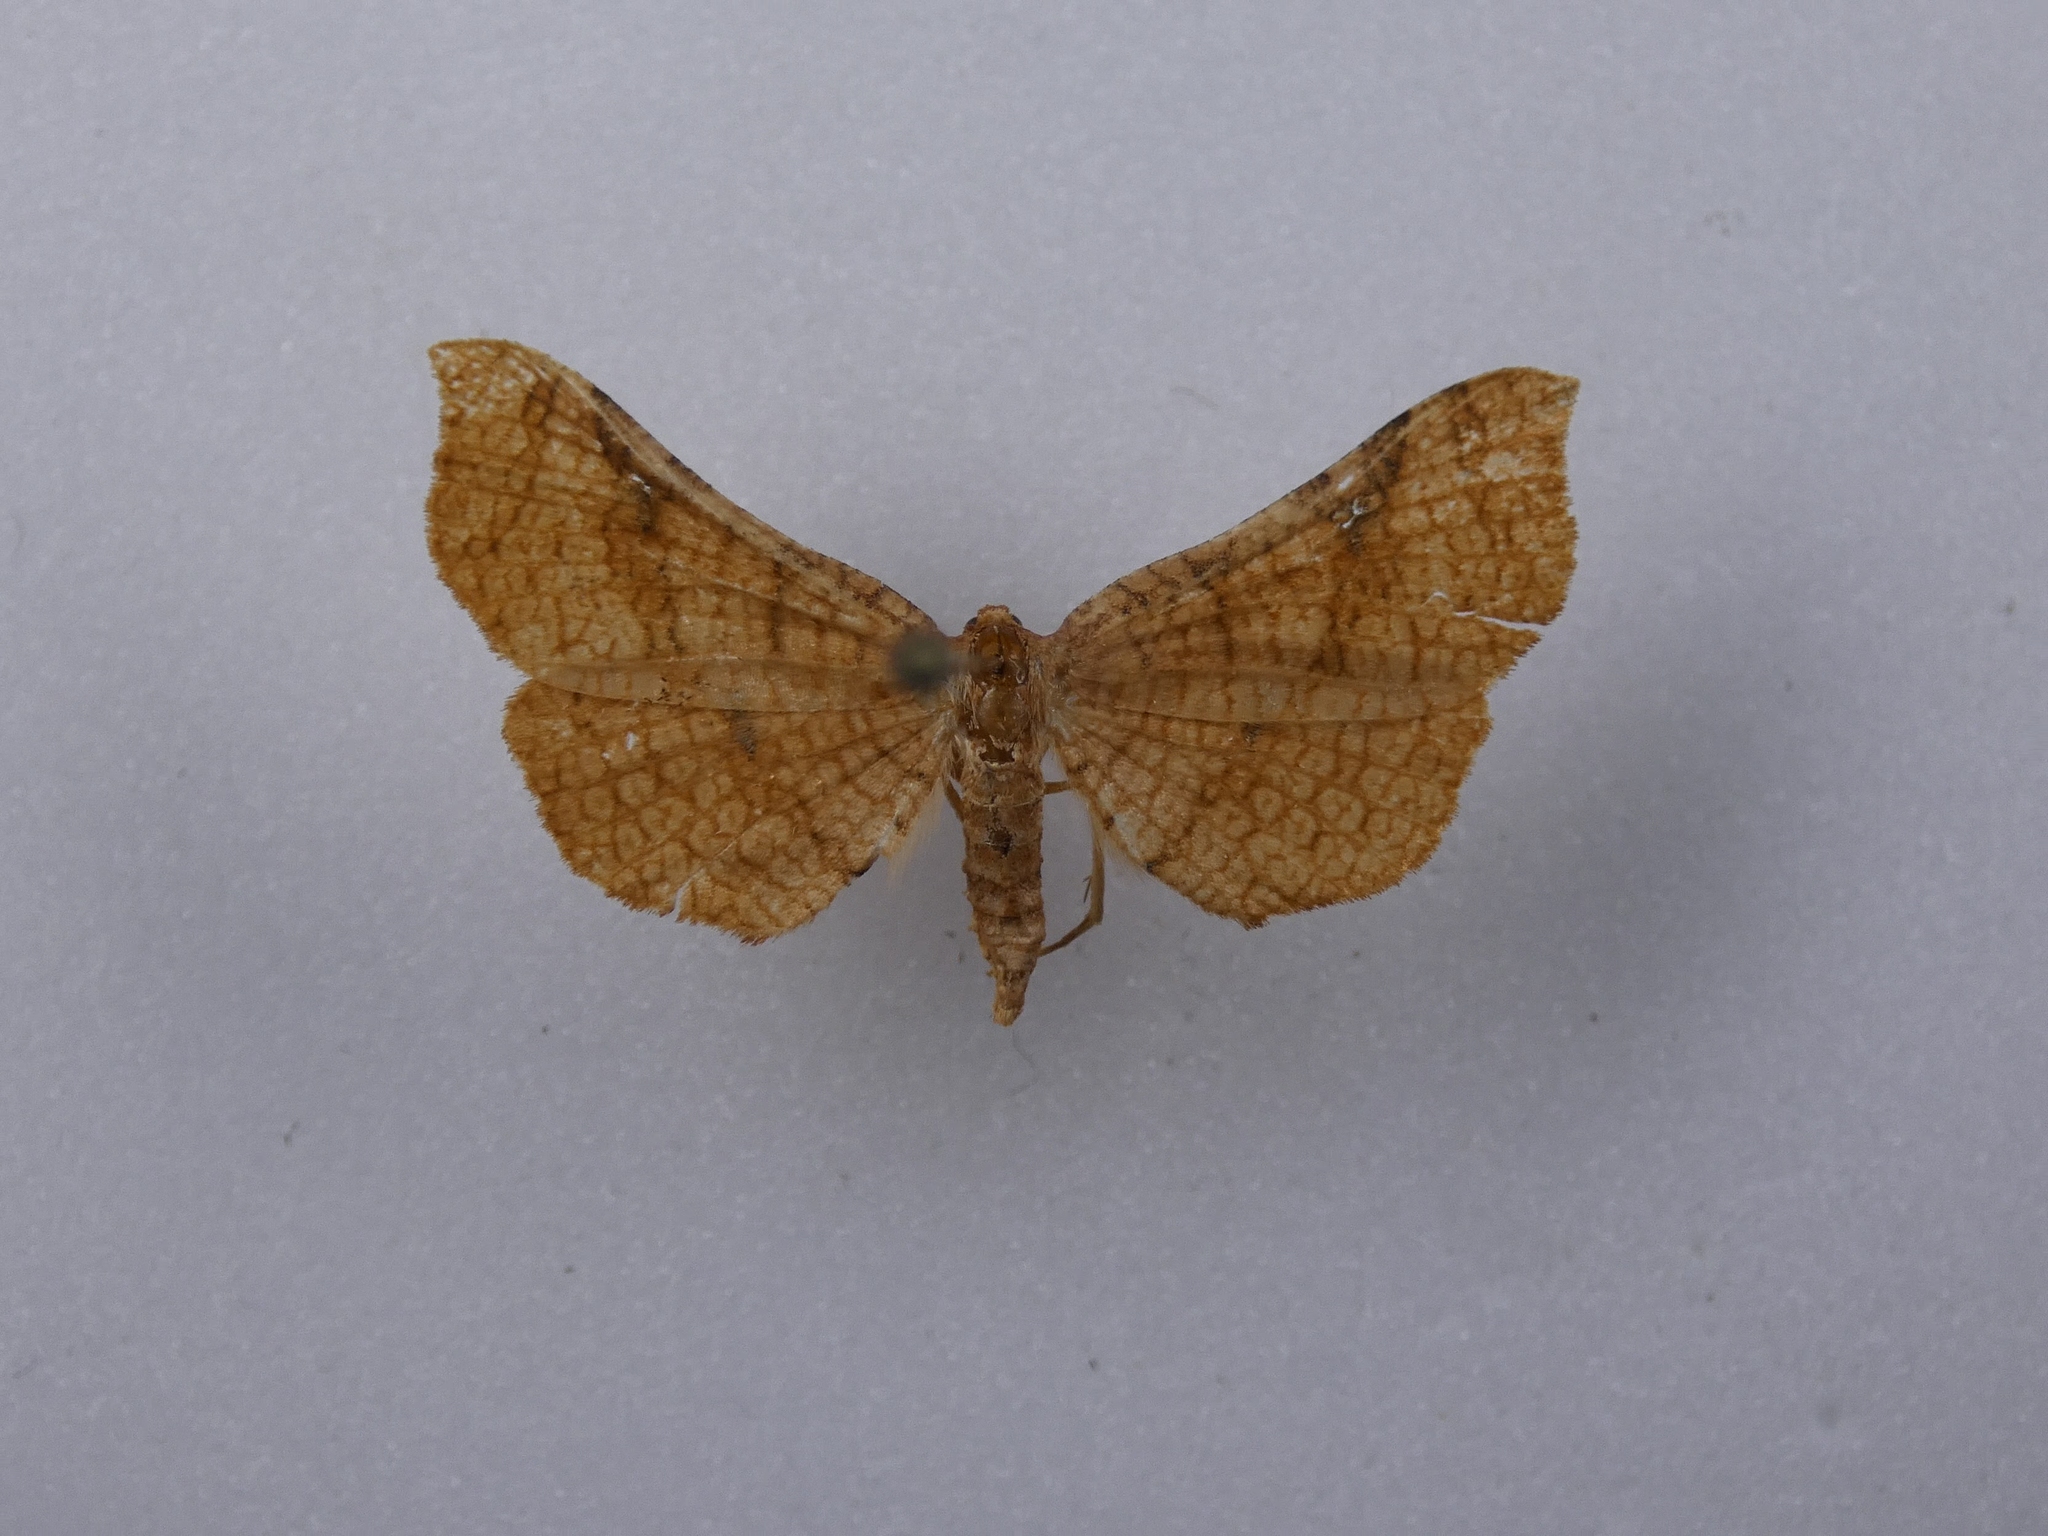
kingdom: Animalia
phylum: Arthropoda
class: Insecta
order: Lepidoptera
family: Thyrididae
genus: Morova
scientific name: Morova subfasciata
